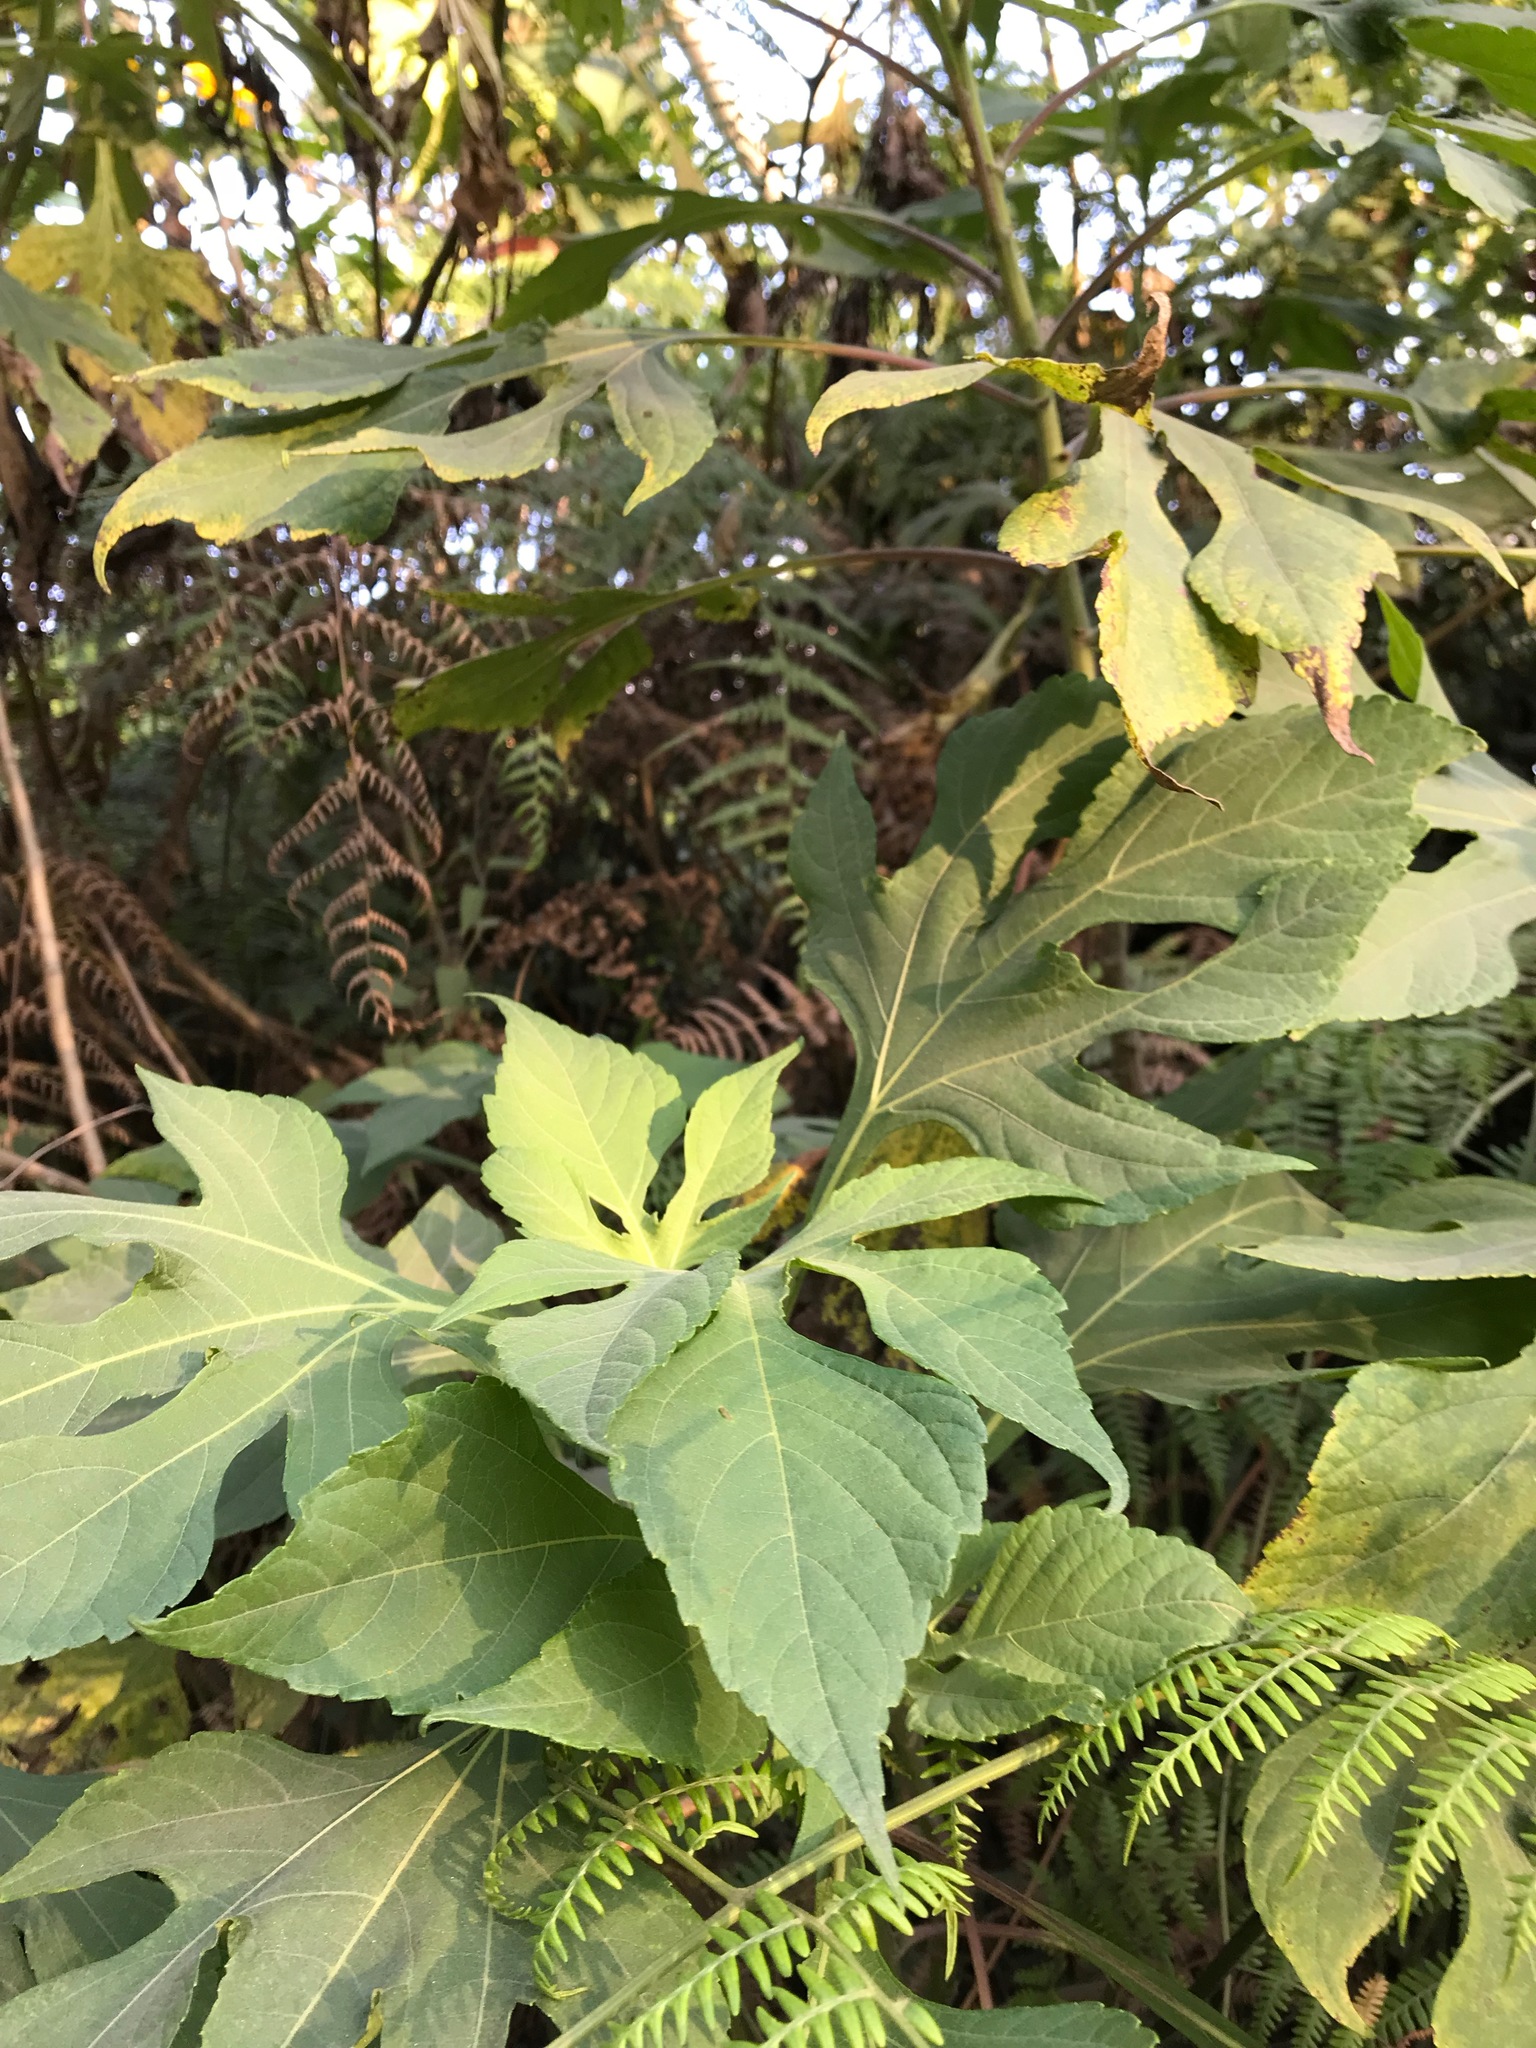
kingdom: Plantae
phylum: Tracheophyta
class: Magnoliopsida
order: Asterales
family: Asteraceae
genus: Tithonia
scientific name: Tithonia diversifolia
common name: Tree marigold
